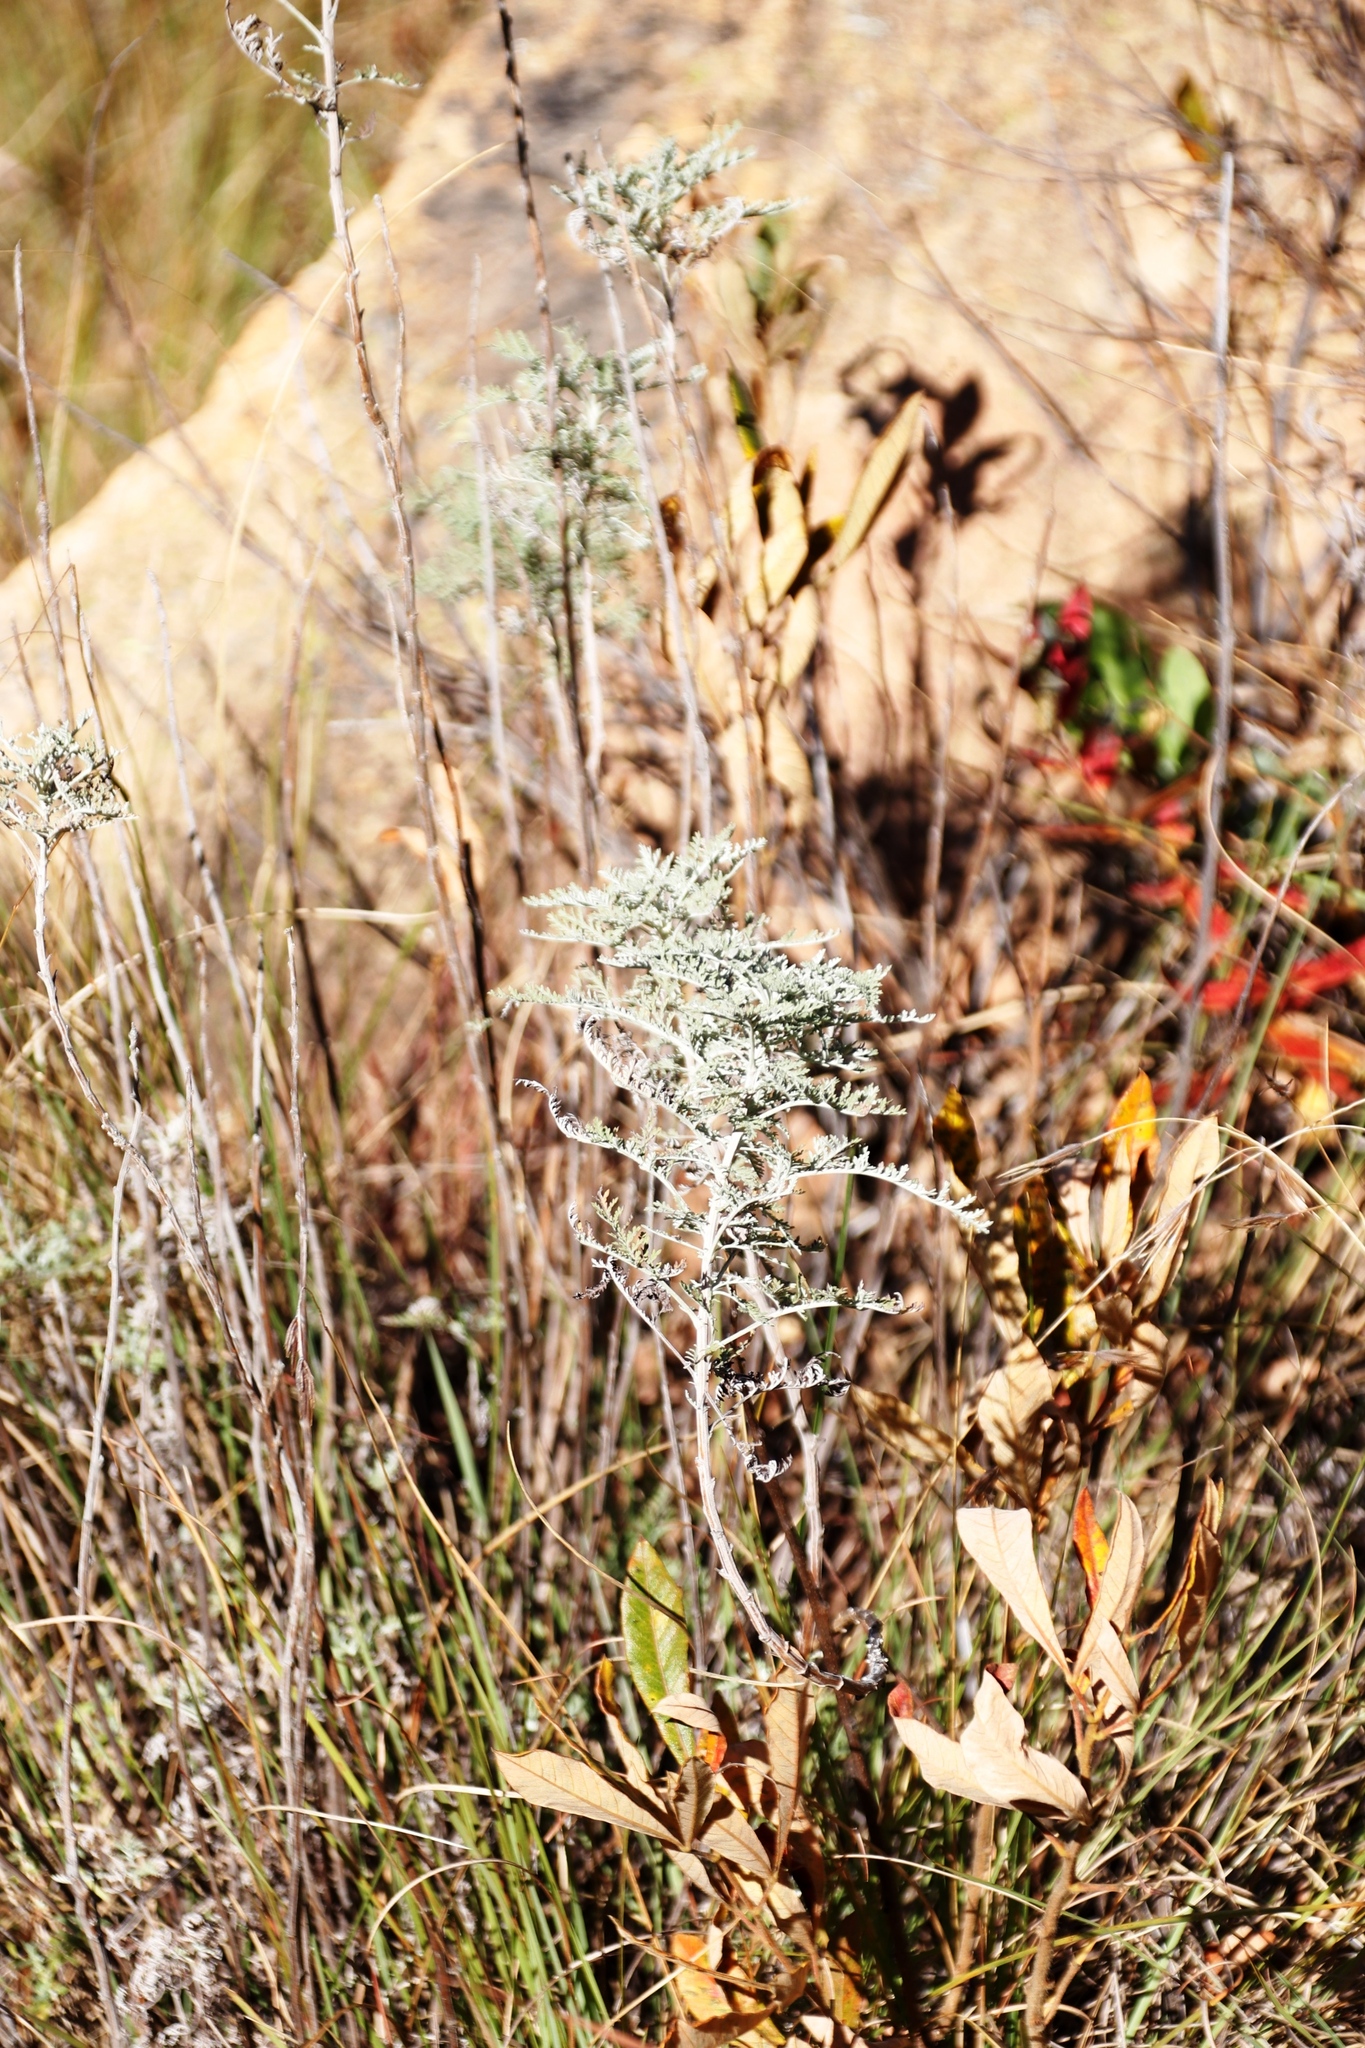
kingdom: Plantae
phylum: Tracheophyta
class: Magnoliopsida
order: Asterales
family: Asteraceae
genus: Artemisia
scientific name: Artemisia afra
